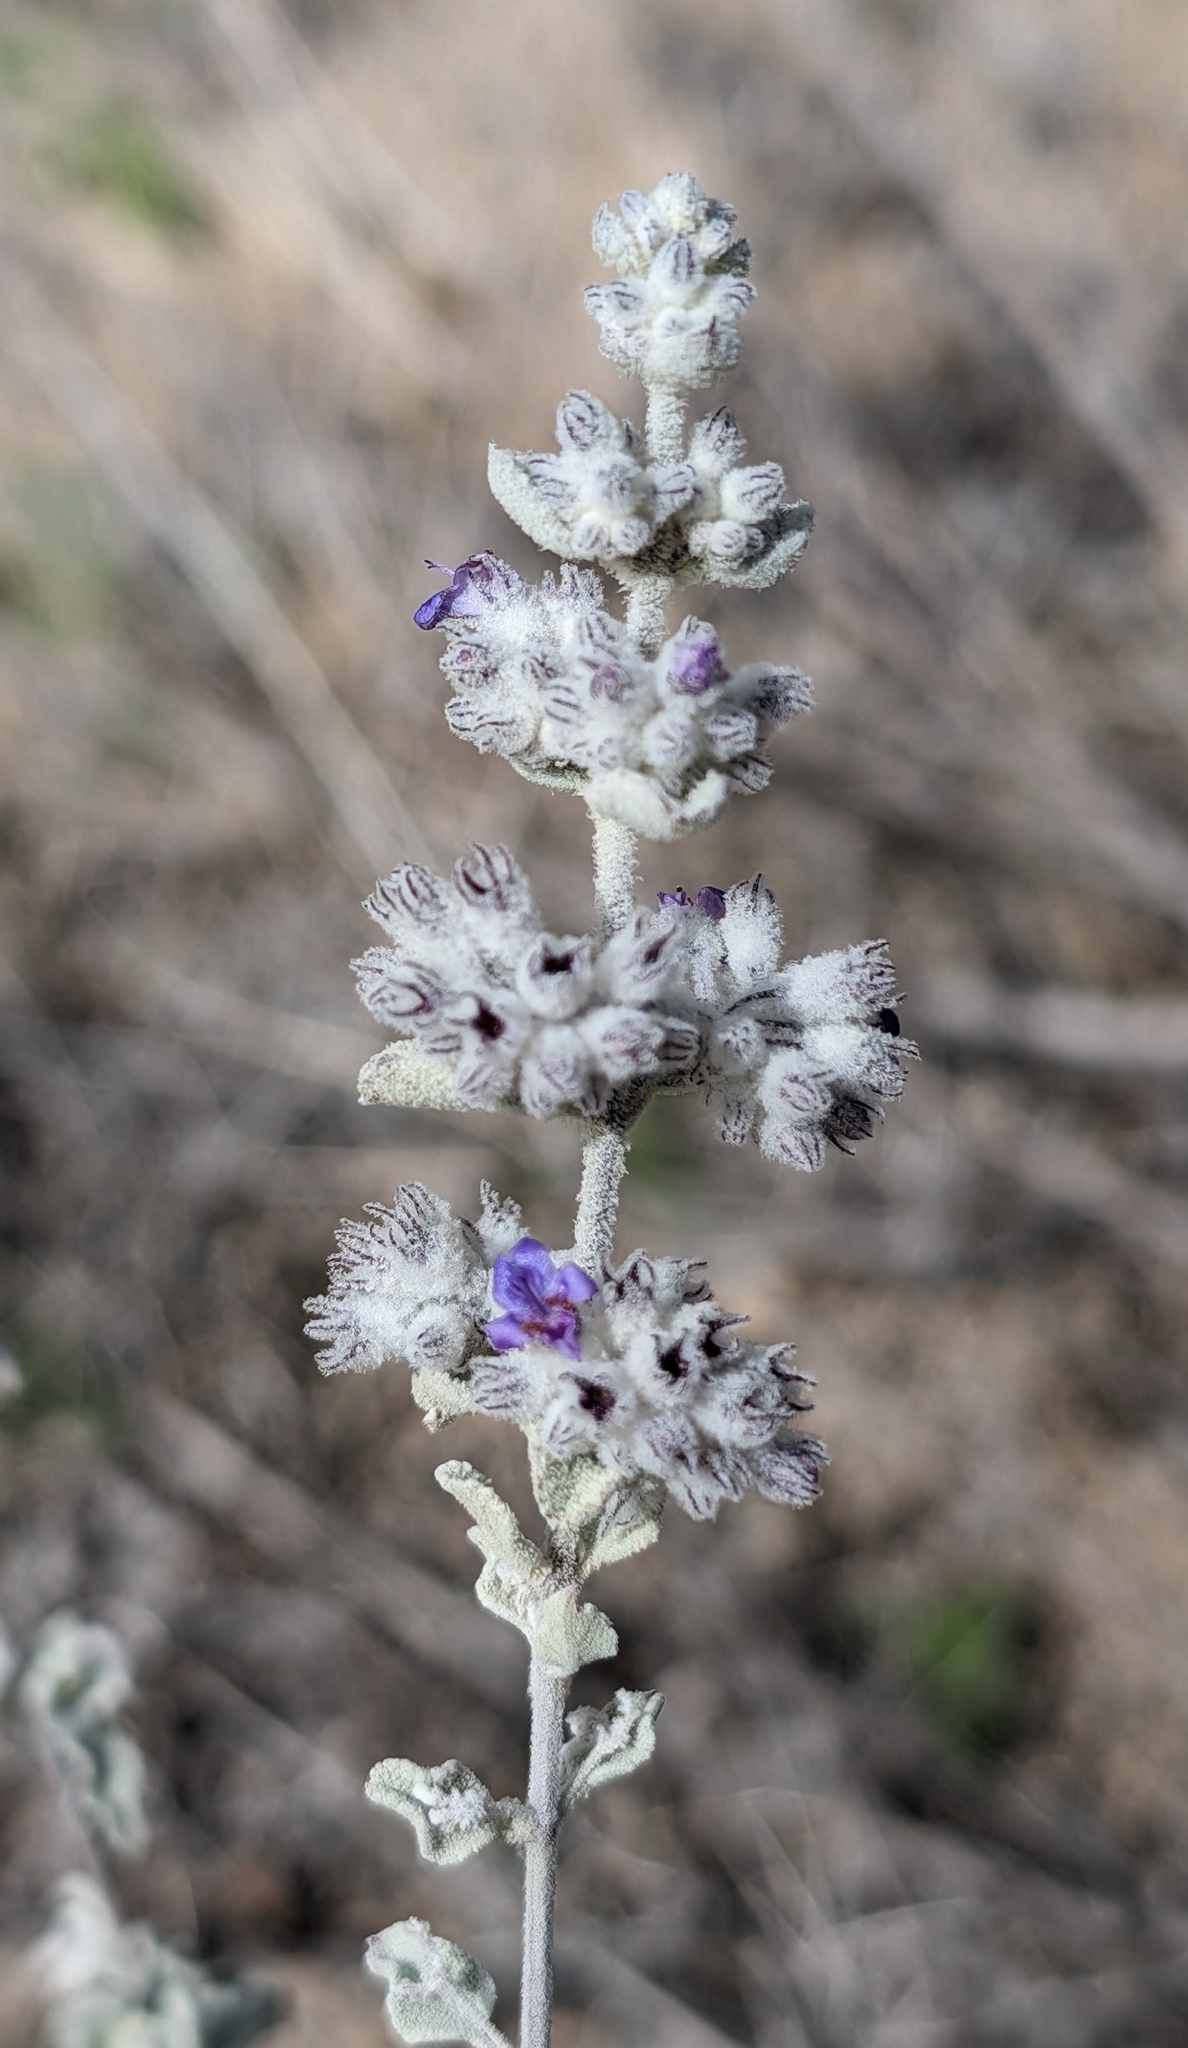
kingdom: Plantae
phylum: Tracheophyta
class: Magnoliopsida
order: Lamiales
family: Lamiaceae
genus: Condea
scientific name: Condea emoryi
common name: Chia
